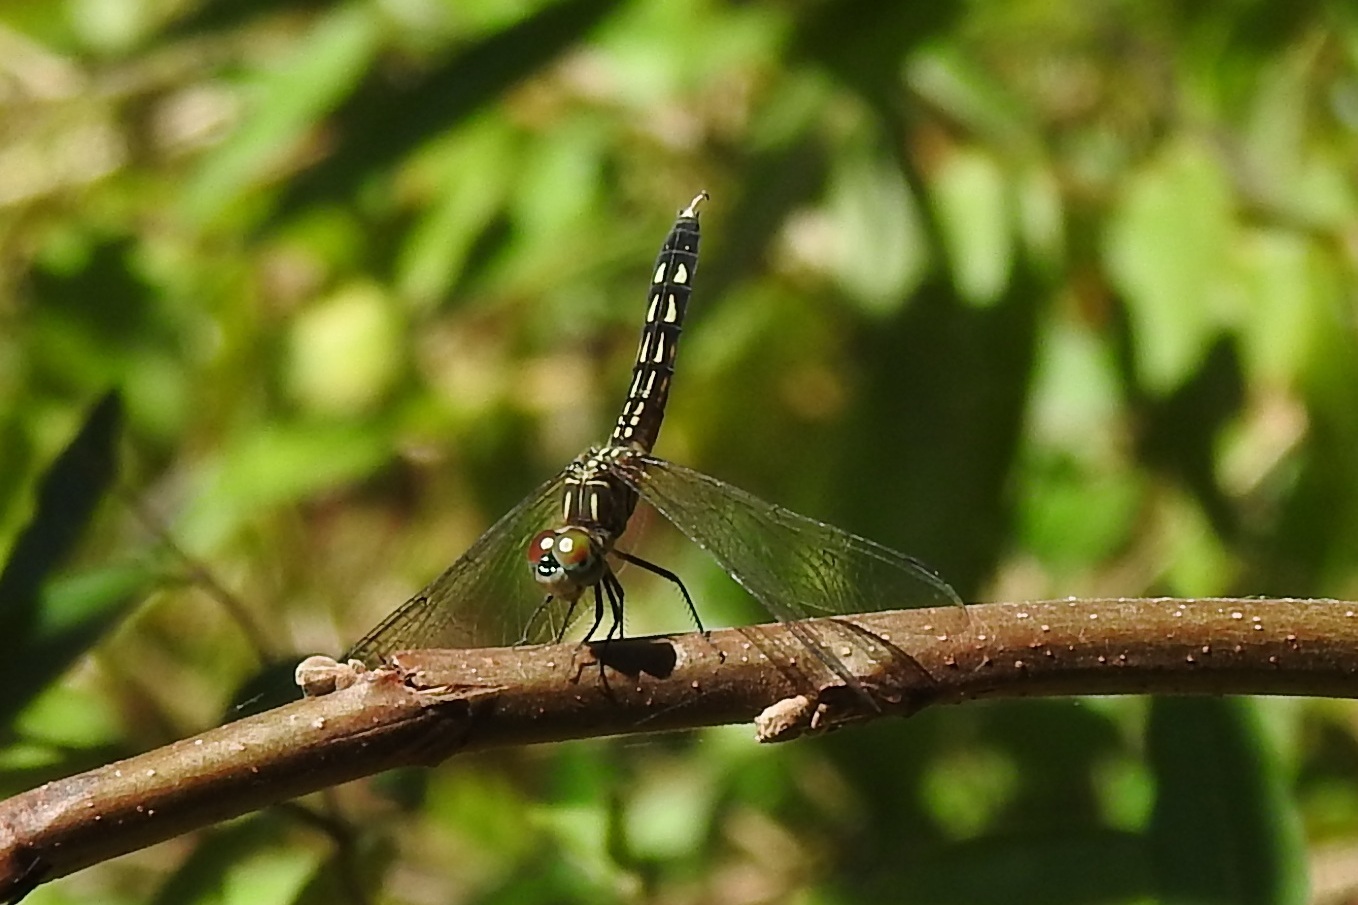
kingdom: Animalia
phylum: Arthropoda
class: Insecta
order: Odonata
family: Libellulidae
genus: Pachydiplax
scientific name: Pachydiplax longipennis
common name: Blue dasher
